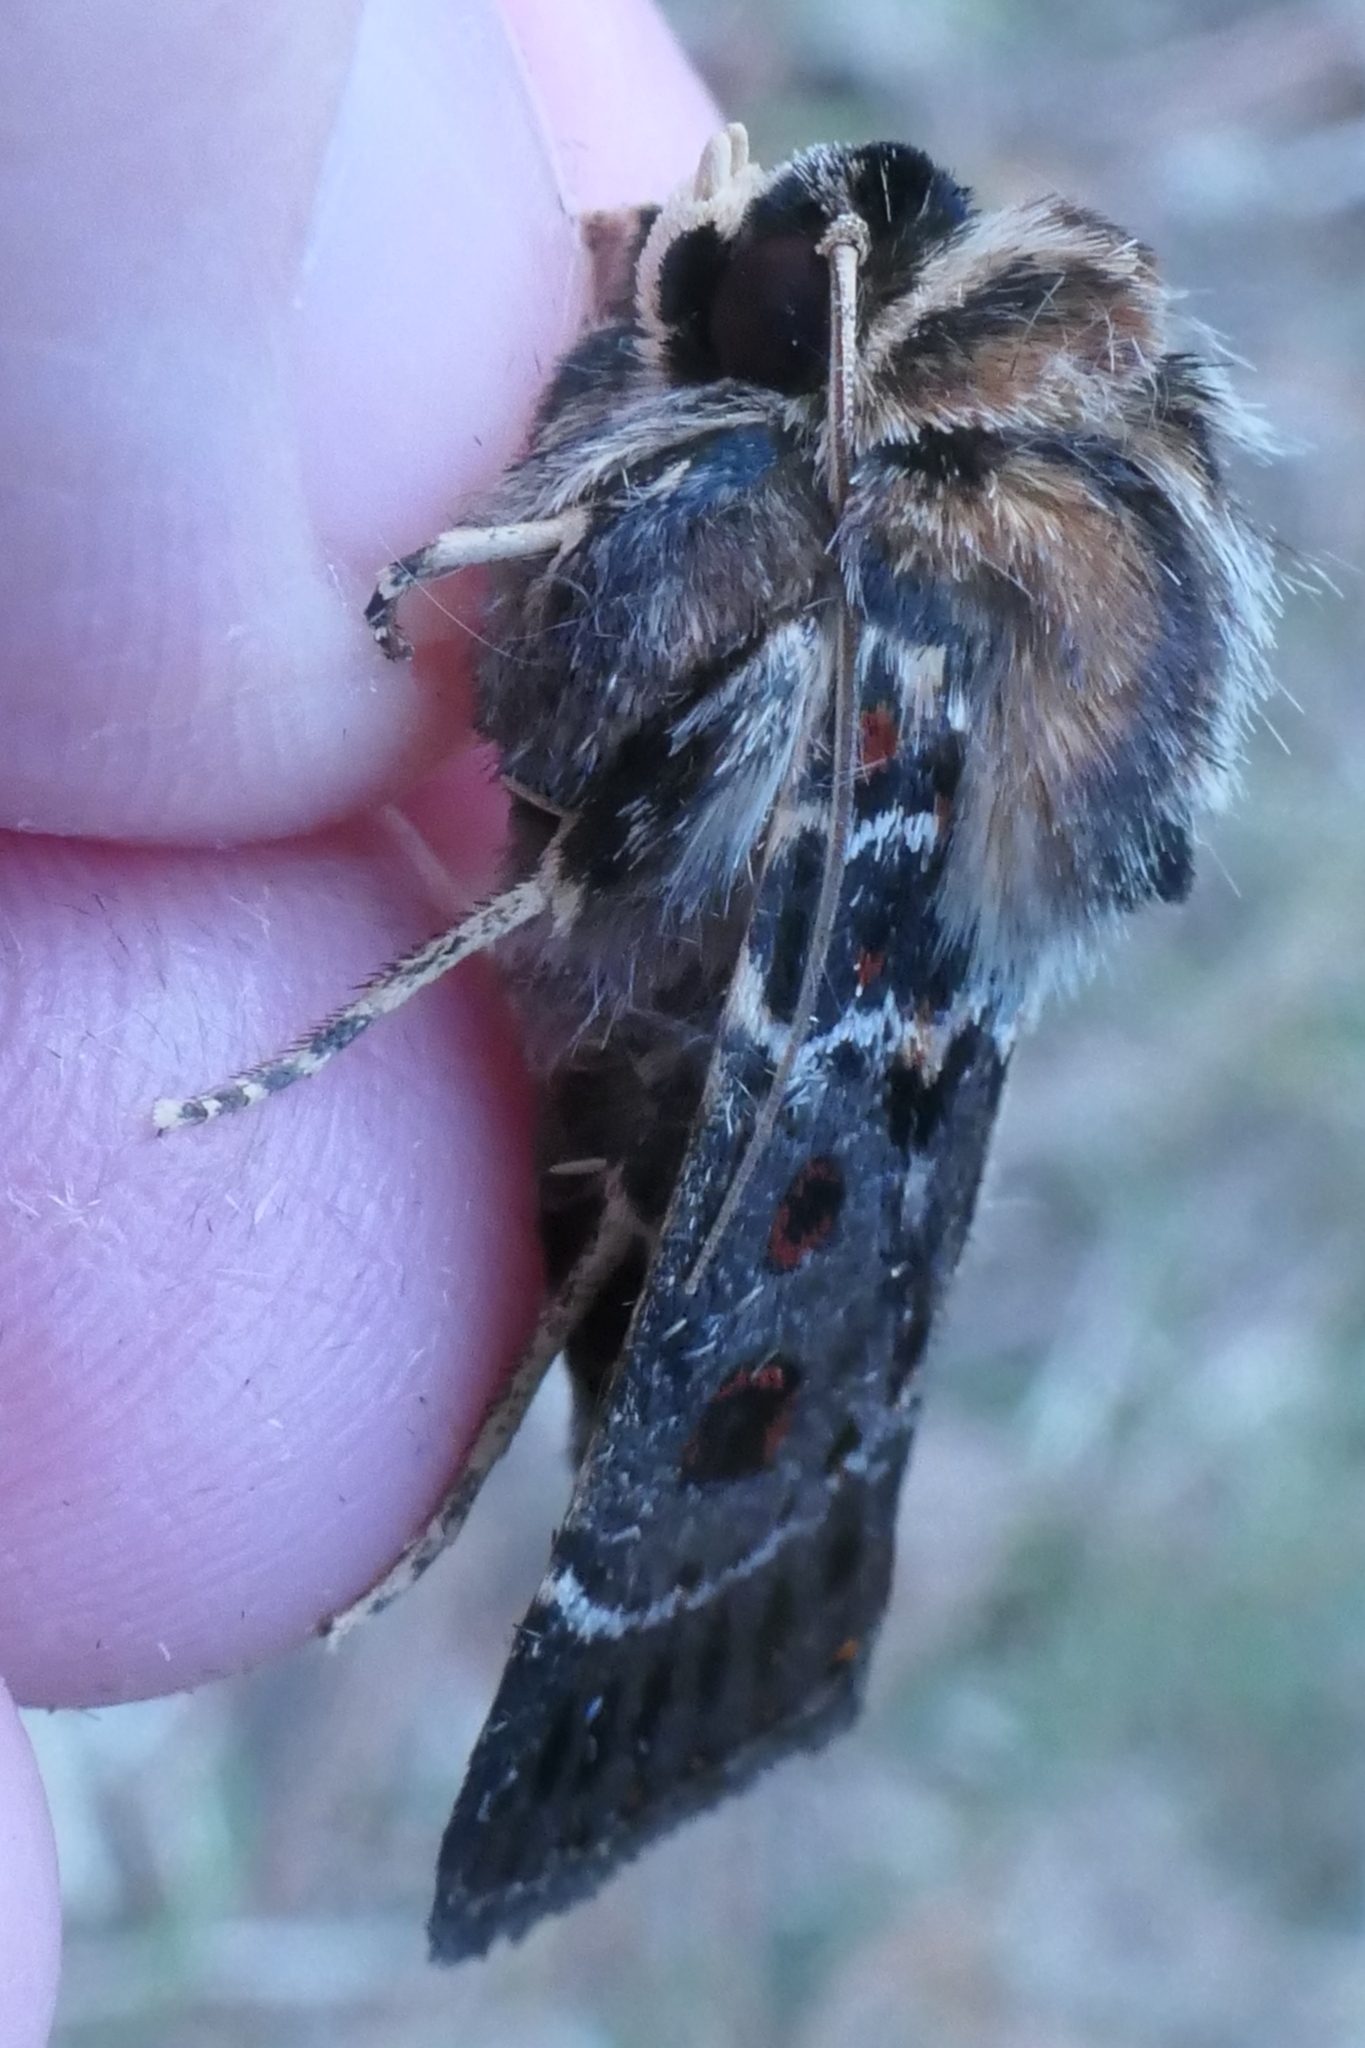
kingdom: Animalia
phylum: Arthropoda
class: Insecta
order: Lepidoptera
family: Noctuidae
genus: Proteuxoa
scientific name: Proteuxoa sanguinipuncta
